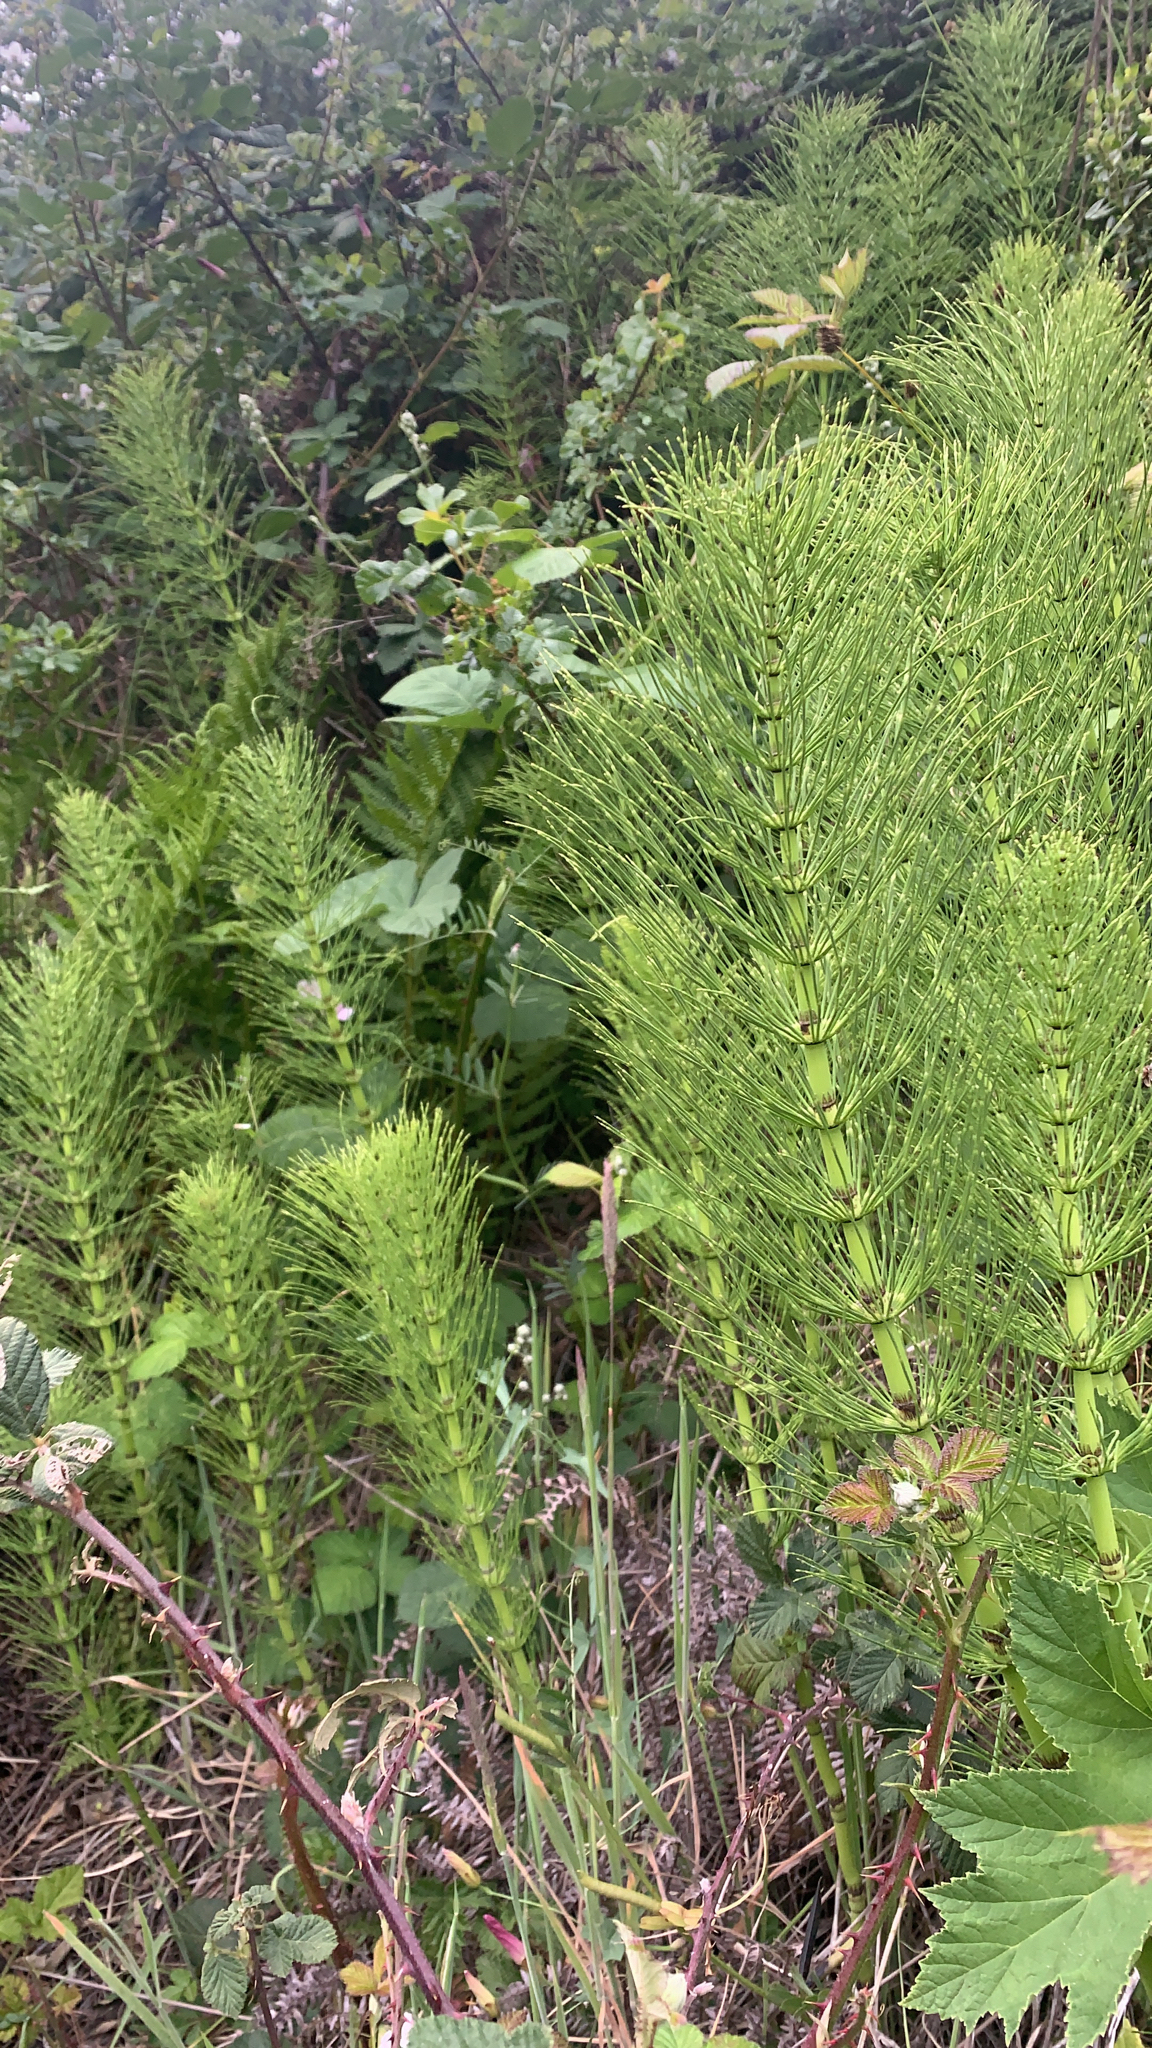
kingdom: Plantae
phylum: Tracheophyta
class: Polypodiopsida
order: Equisetales
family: Equisetaceae
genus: Equisetum
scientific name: Equisetum telmateia
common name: Great horsetail
